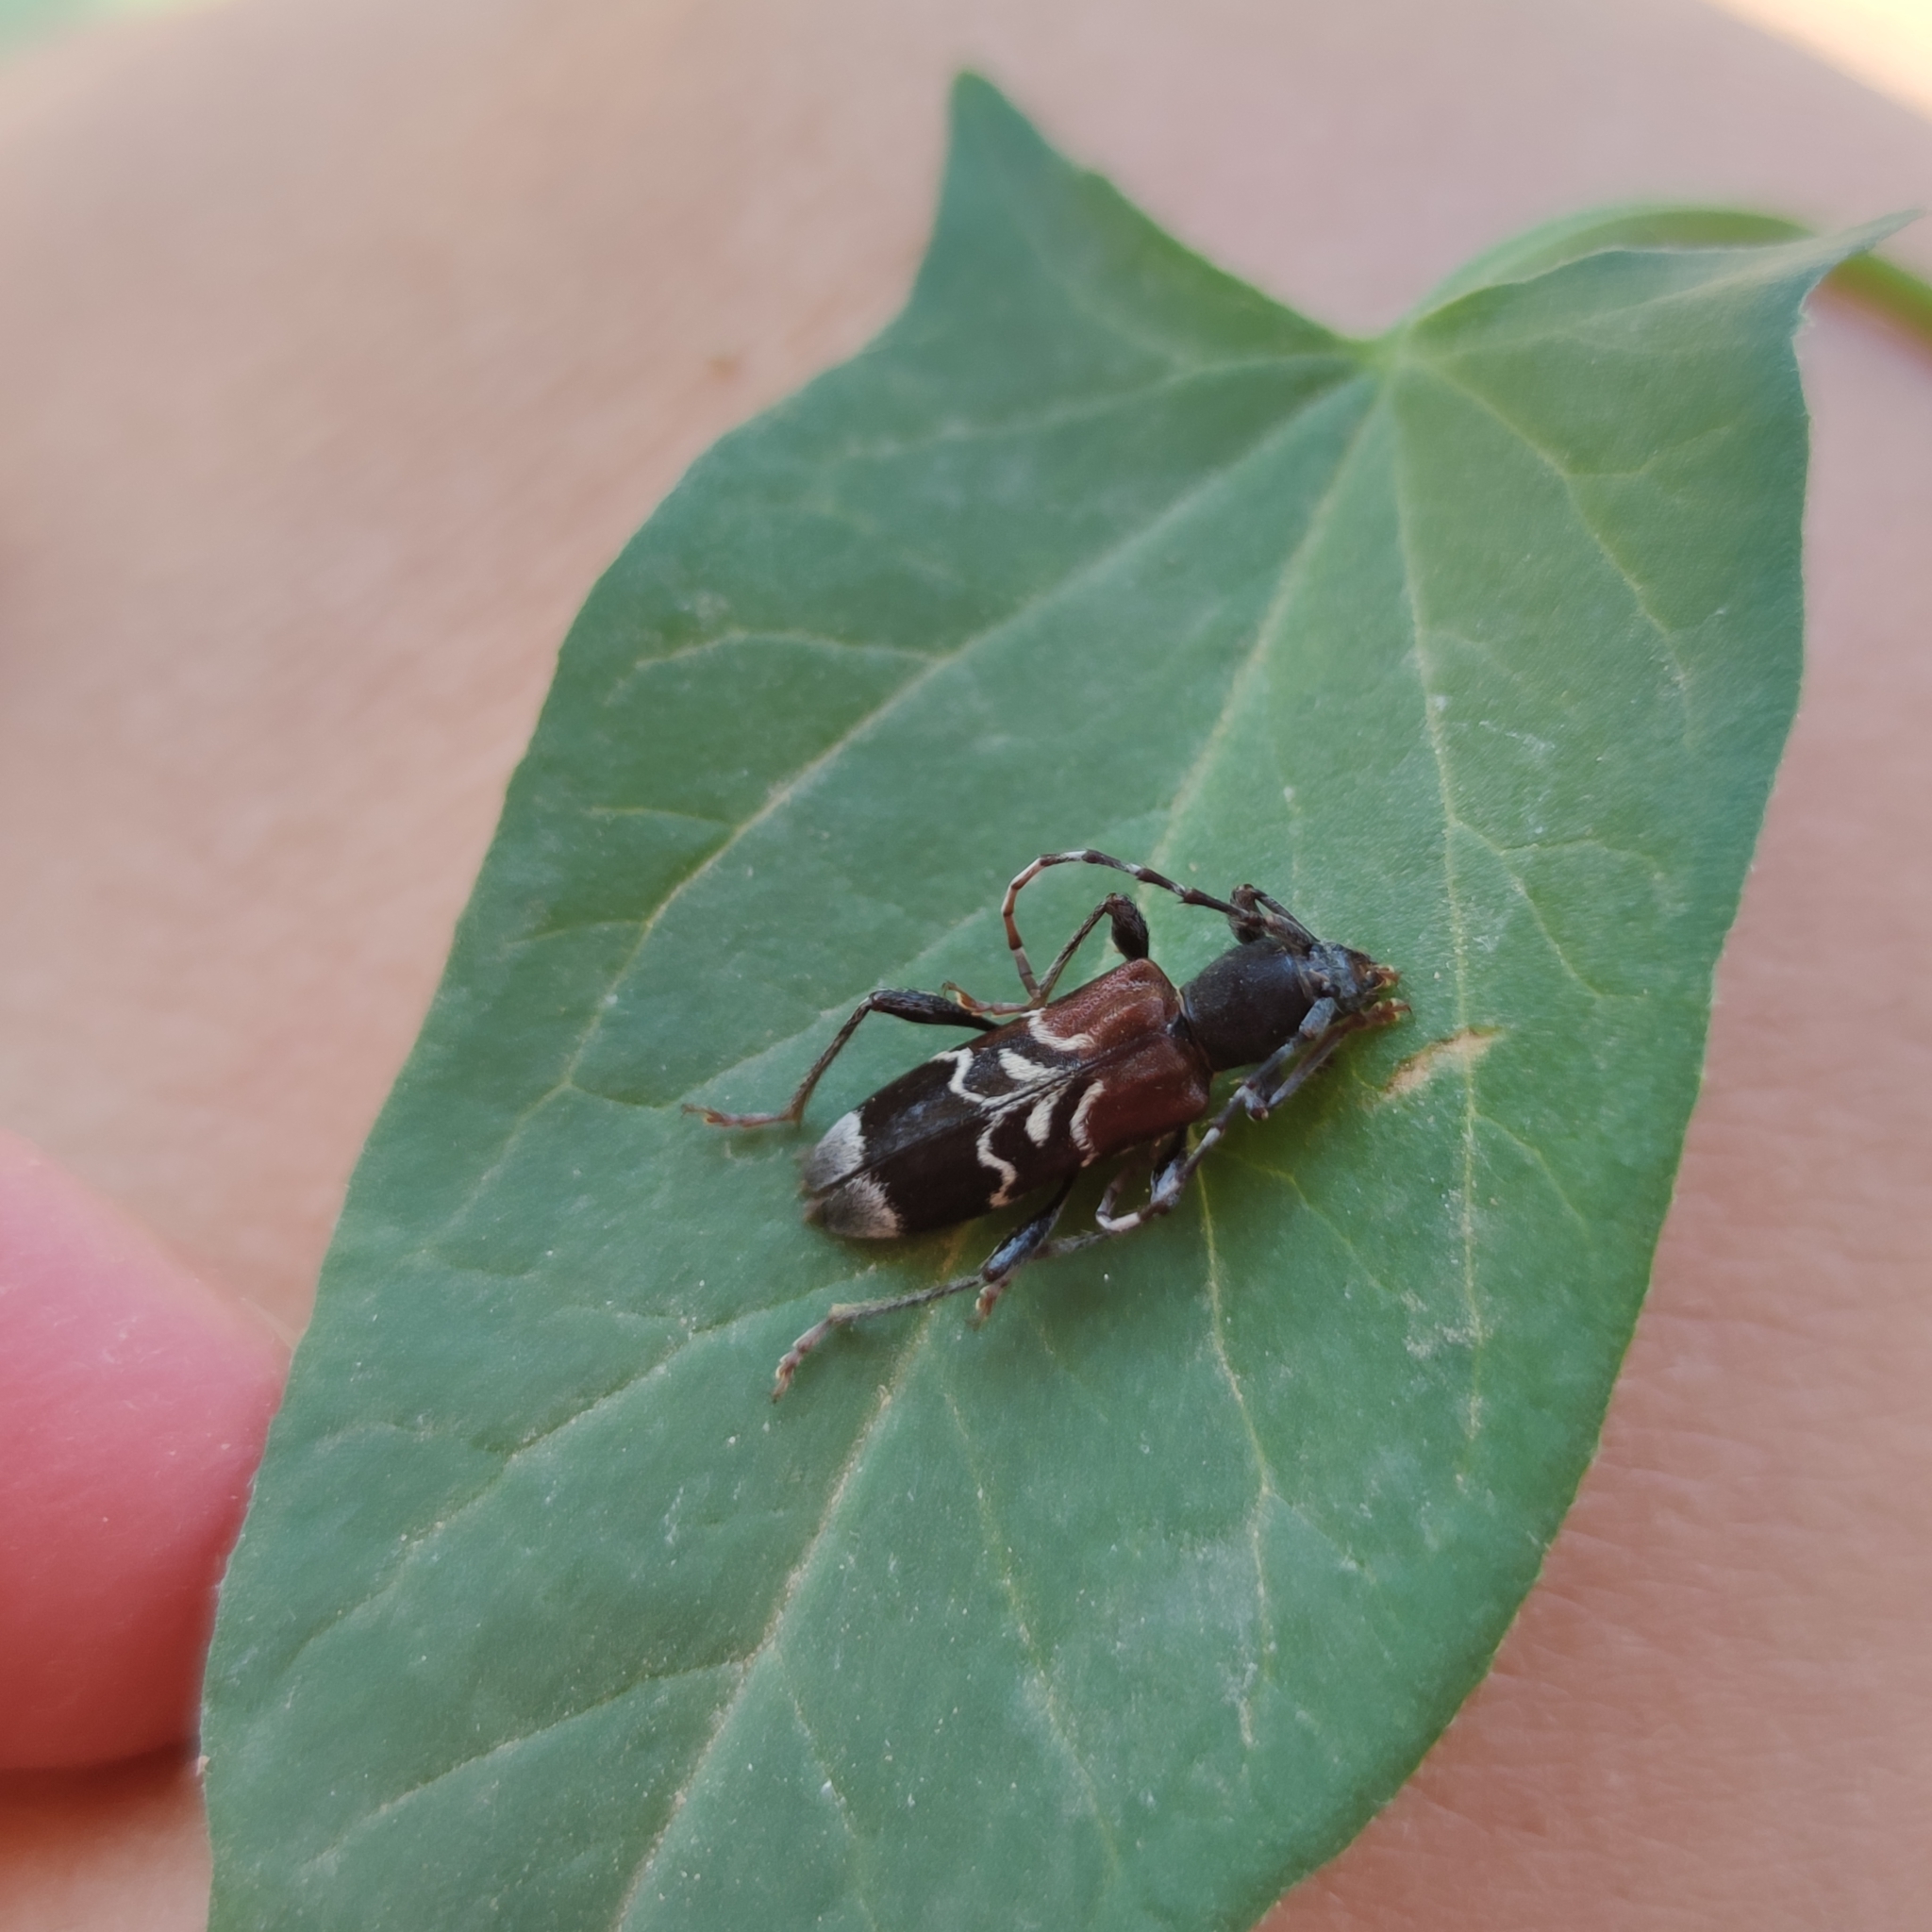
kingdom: Animalia
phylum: Arthropoda
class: Insecta
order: Coleoptera
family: Cerambycidae
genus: Anaglyptus
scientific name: Anaglyptus mysticus
